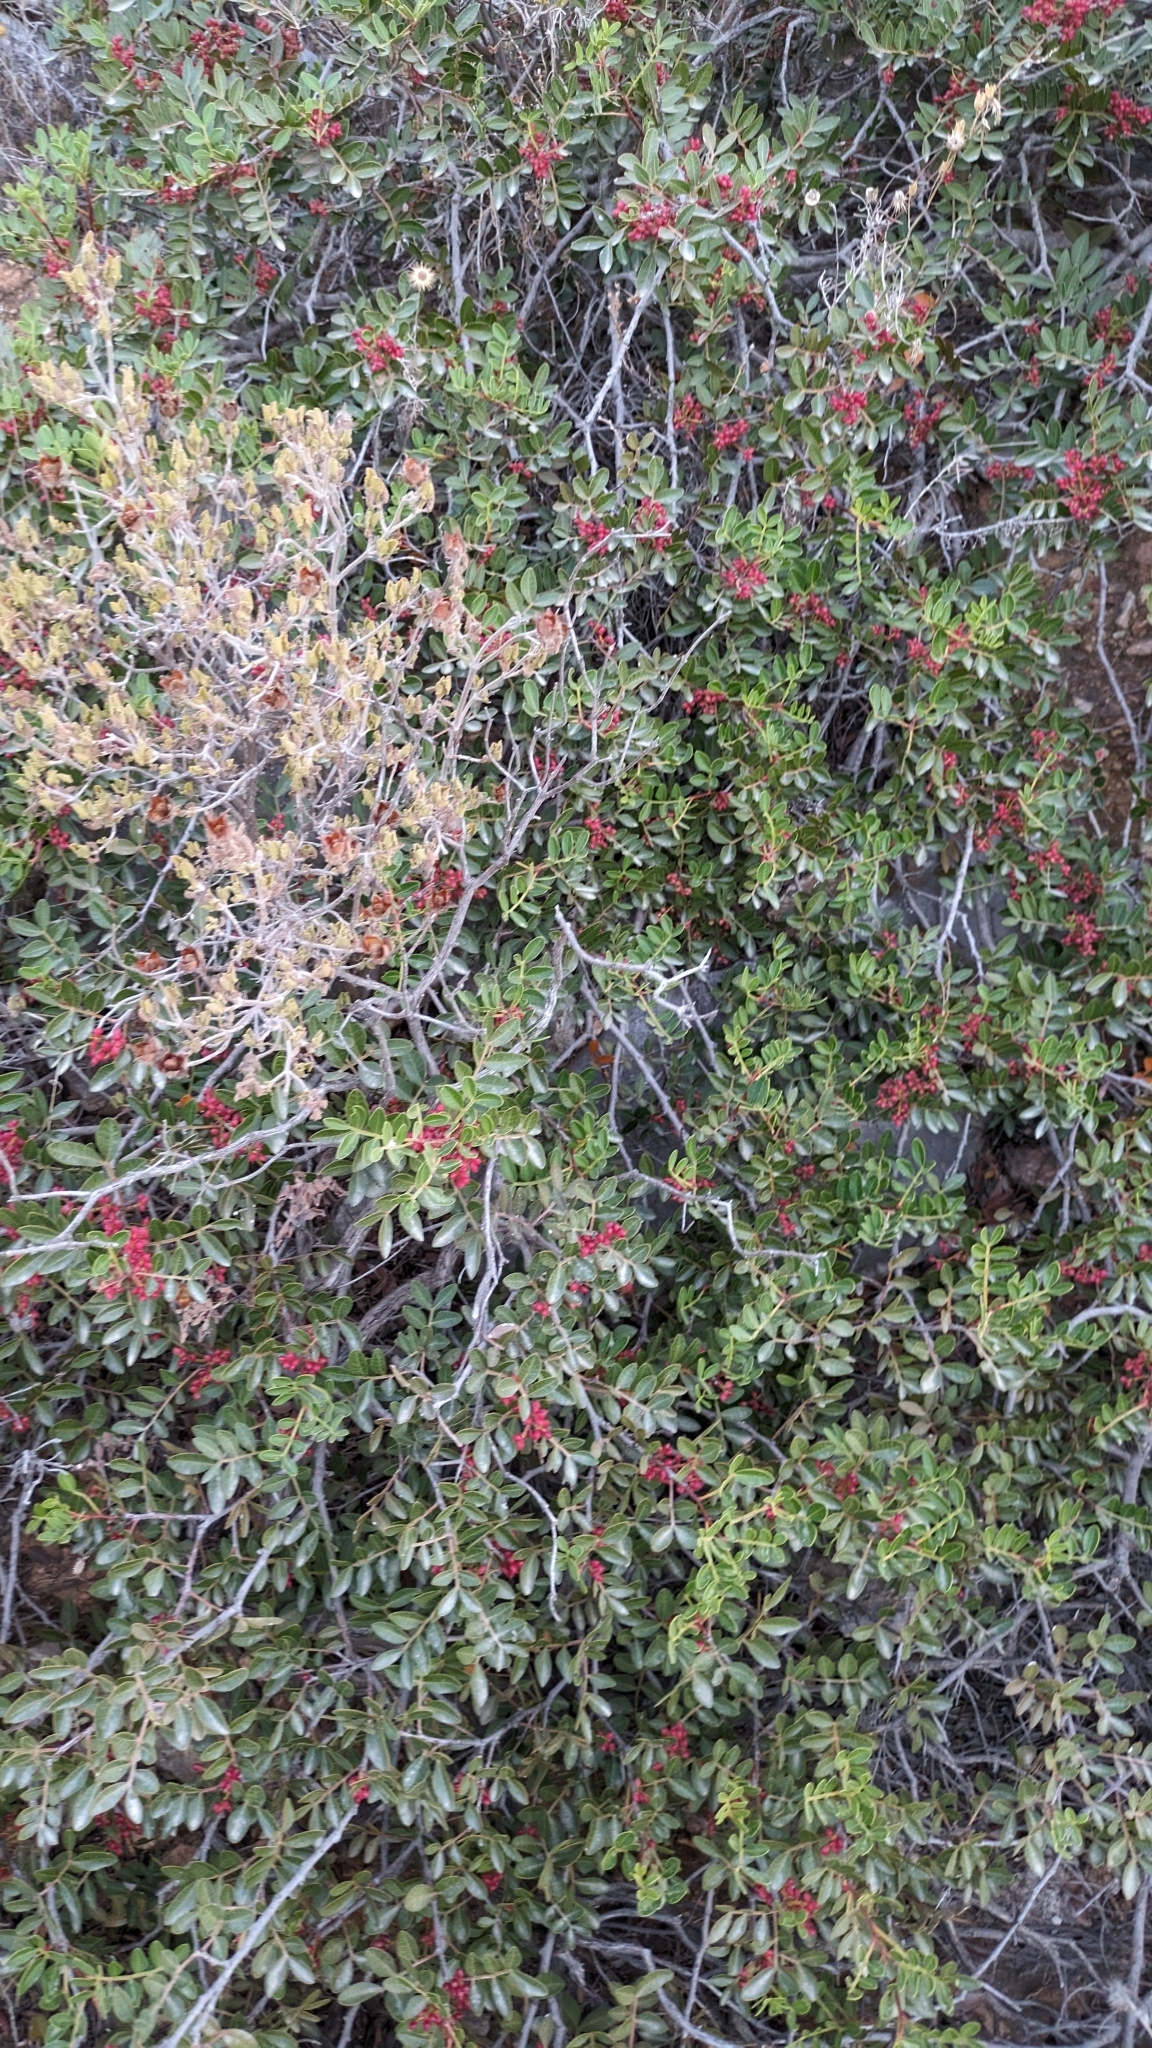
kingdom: Plantae
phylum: Tracheophyta
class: Magnoliopsida
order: Sapindales
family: Anacardiaceae
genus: Pistacia
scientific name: Pistacia lentiscus
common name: Lentisk
